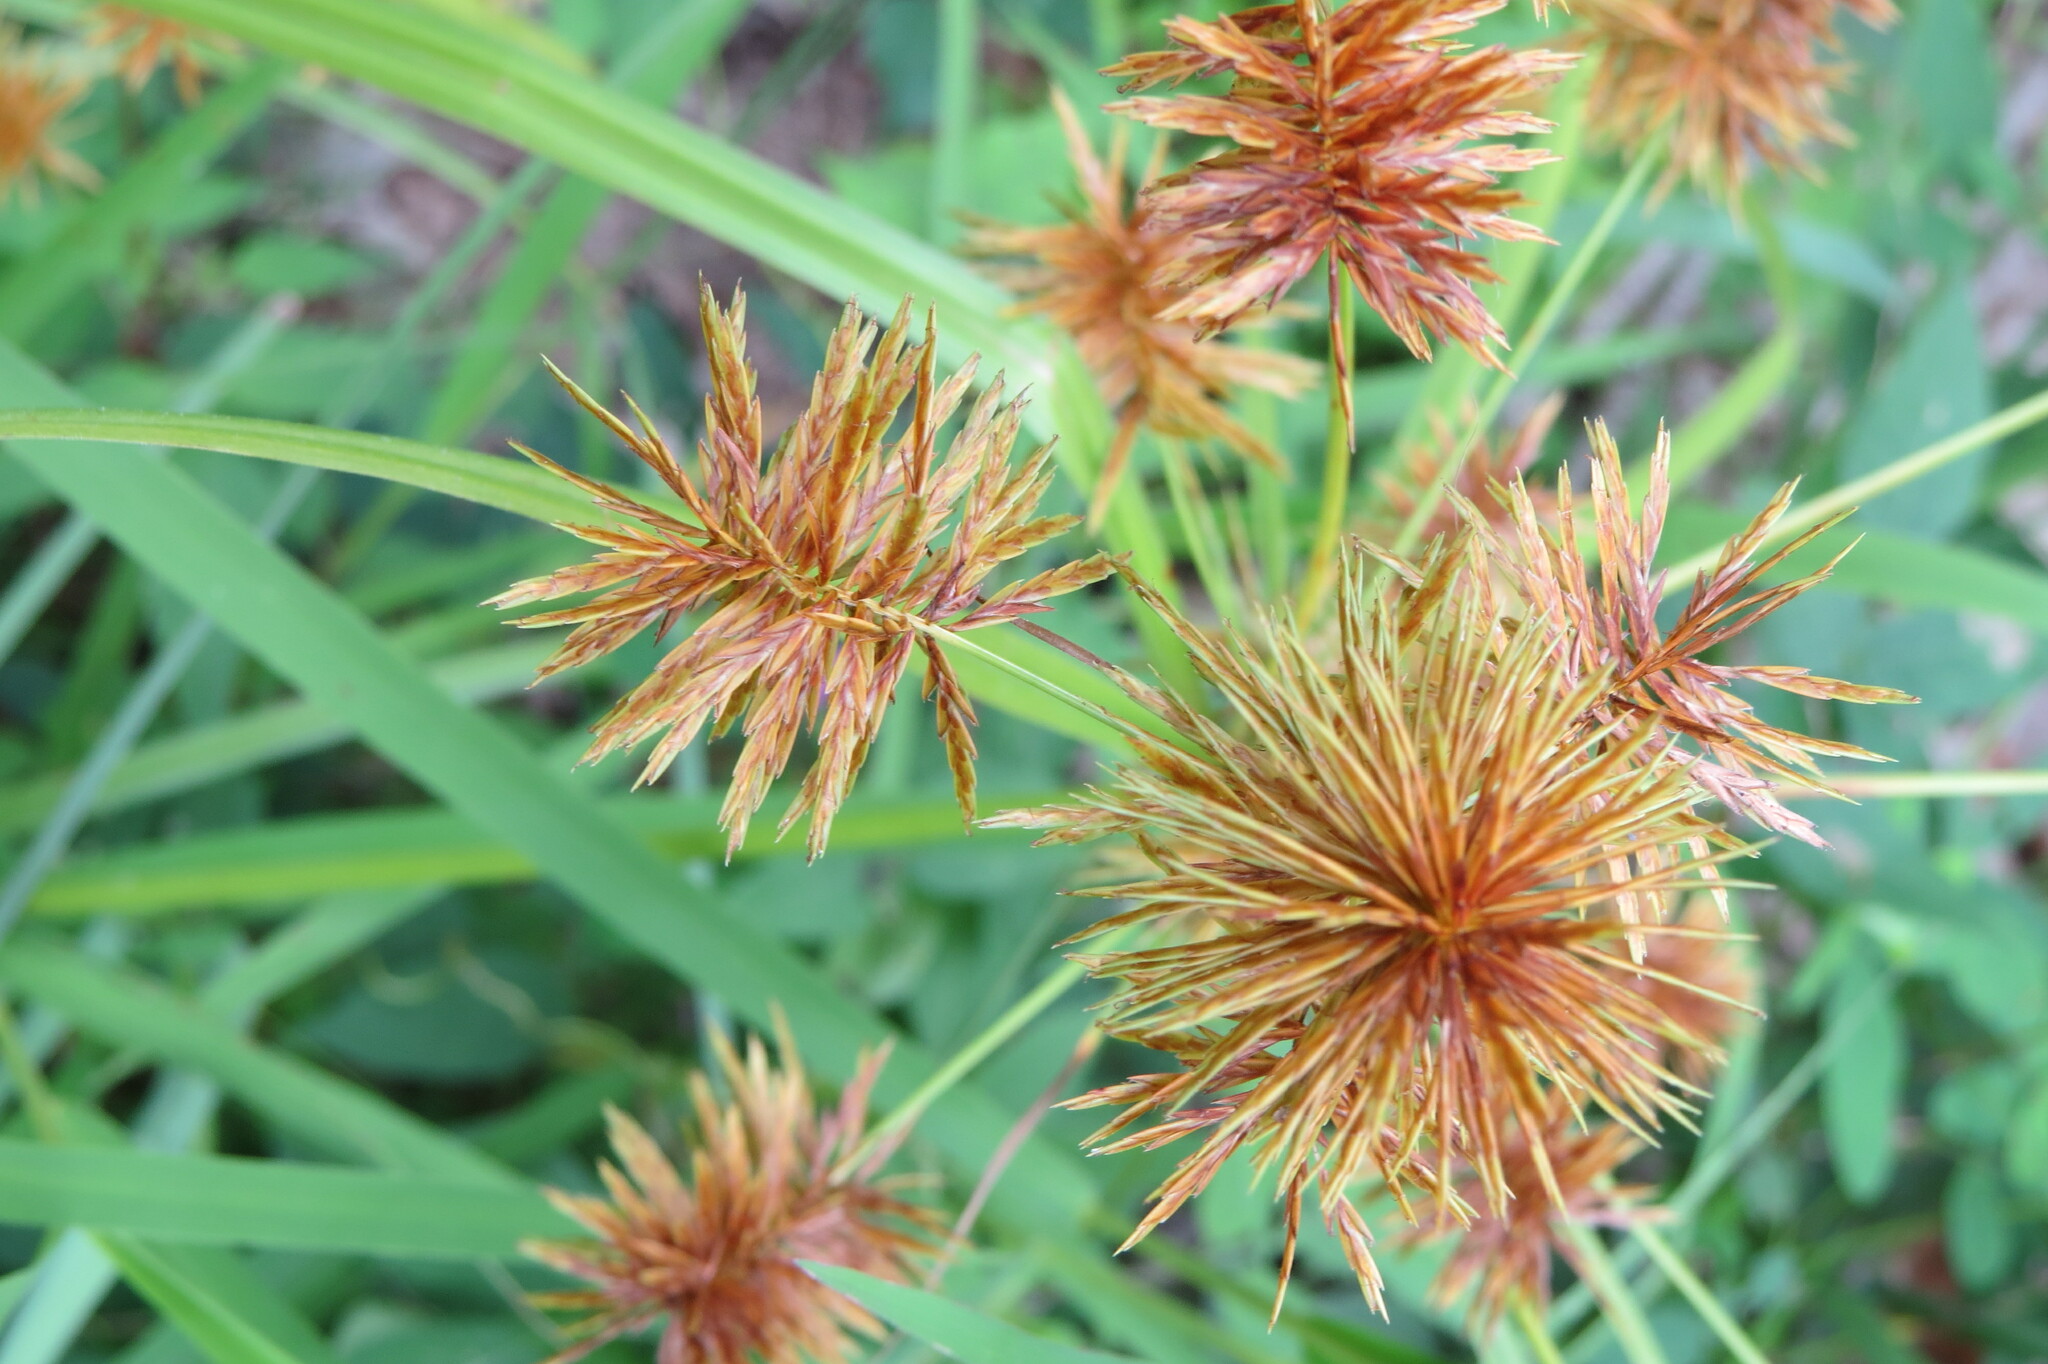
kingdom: Plantae
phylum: Tracheophyta
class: Liliopsida
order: Poales
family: Cyperaceae
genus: Cyperus
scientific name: Cyperus strigosus
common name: False nutsedge
